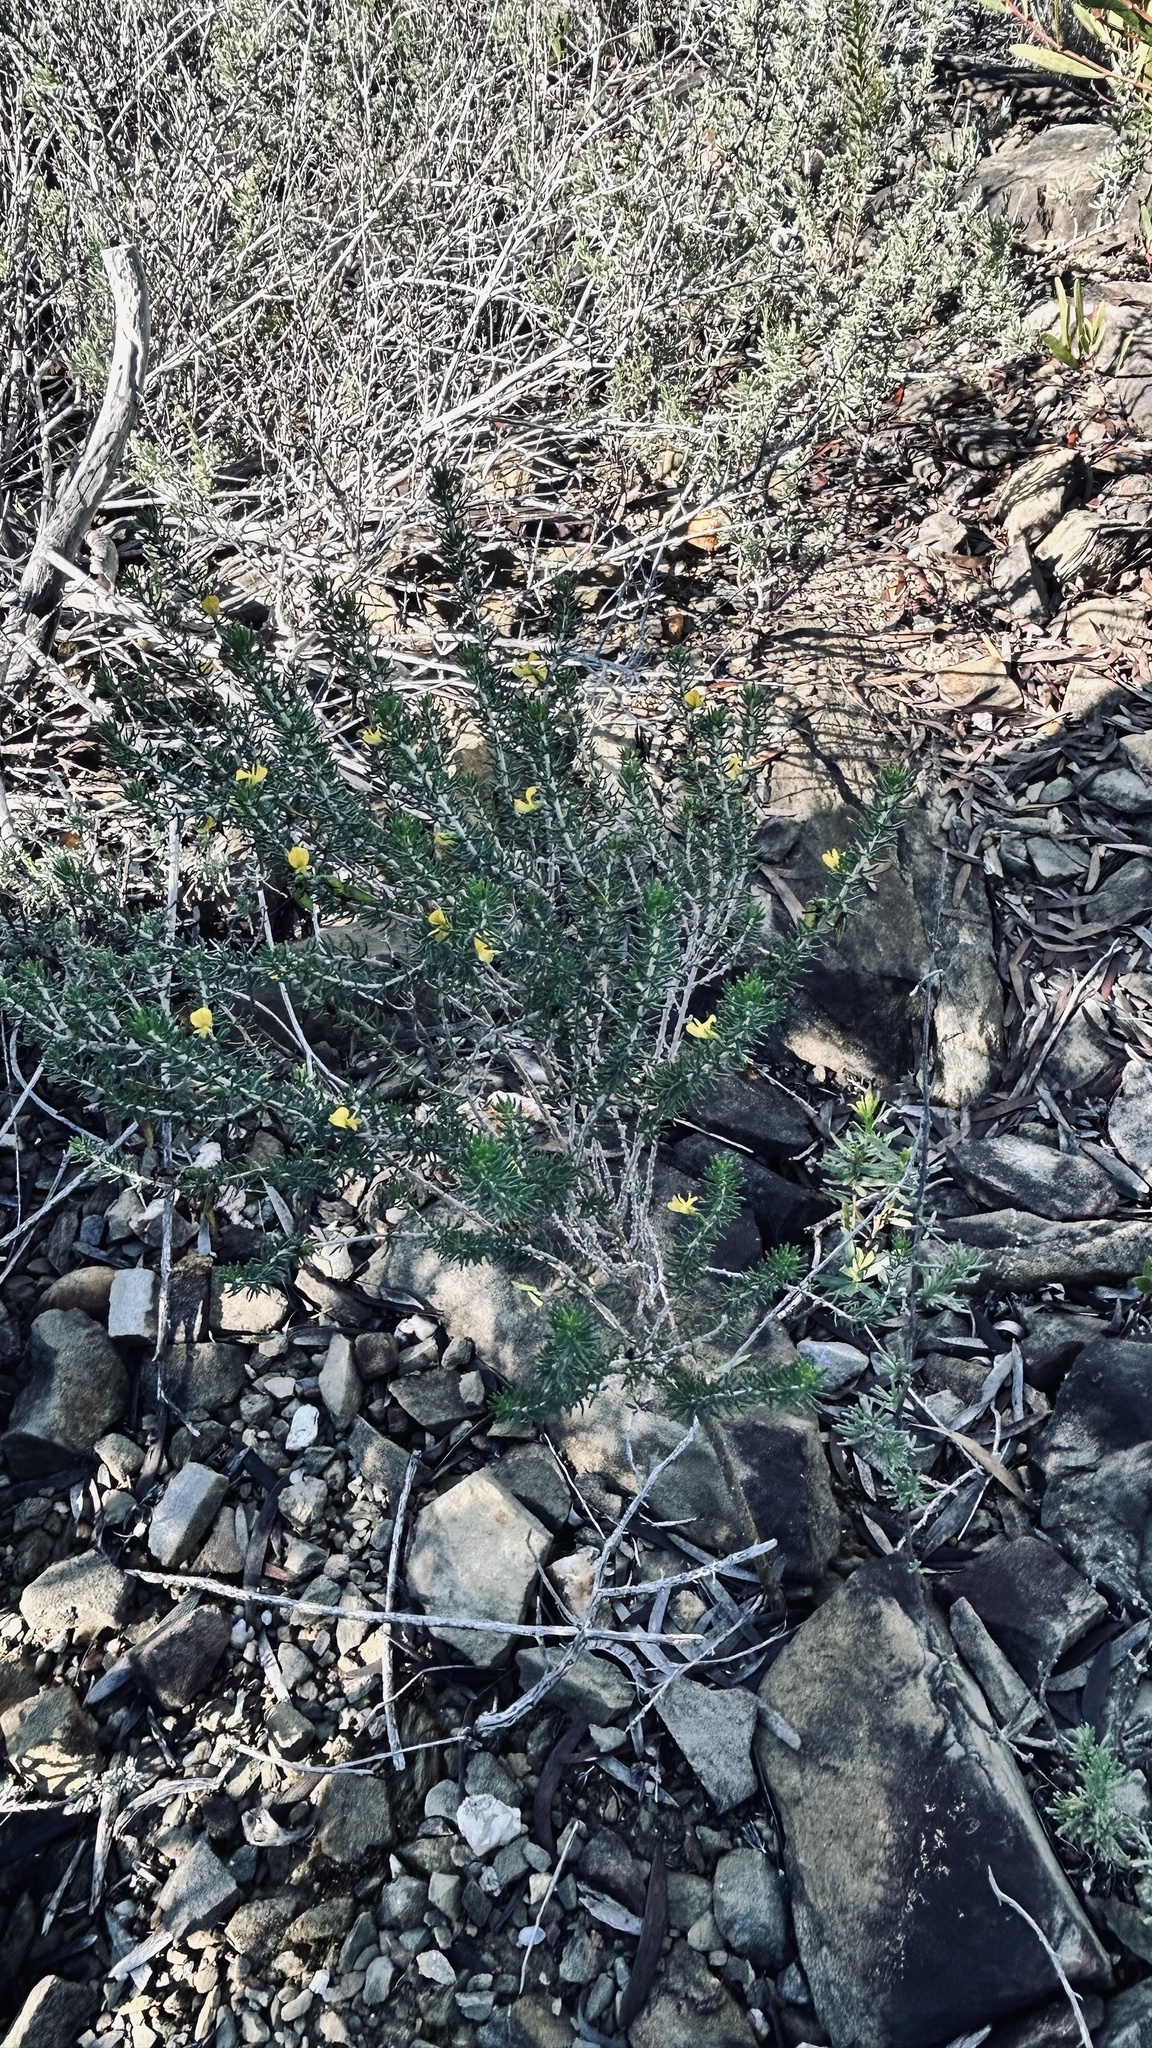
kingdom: Plantae
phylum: Tracheophyta
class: Magnoliopsida
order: Fabales
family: Fabaceae
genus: Aspalathus
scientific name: Aspalathus sanguinea
